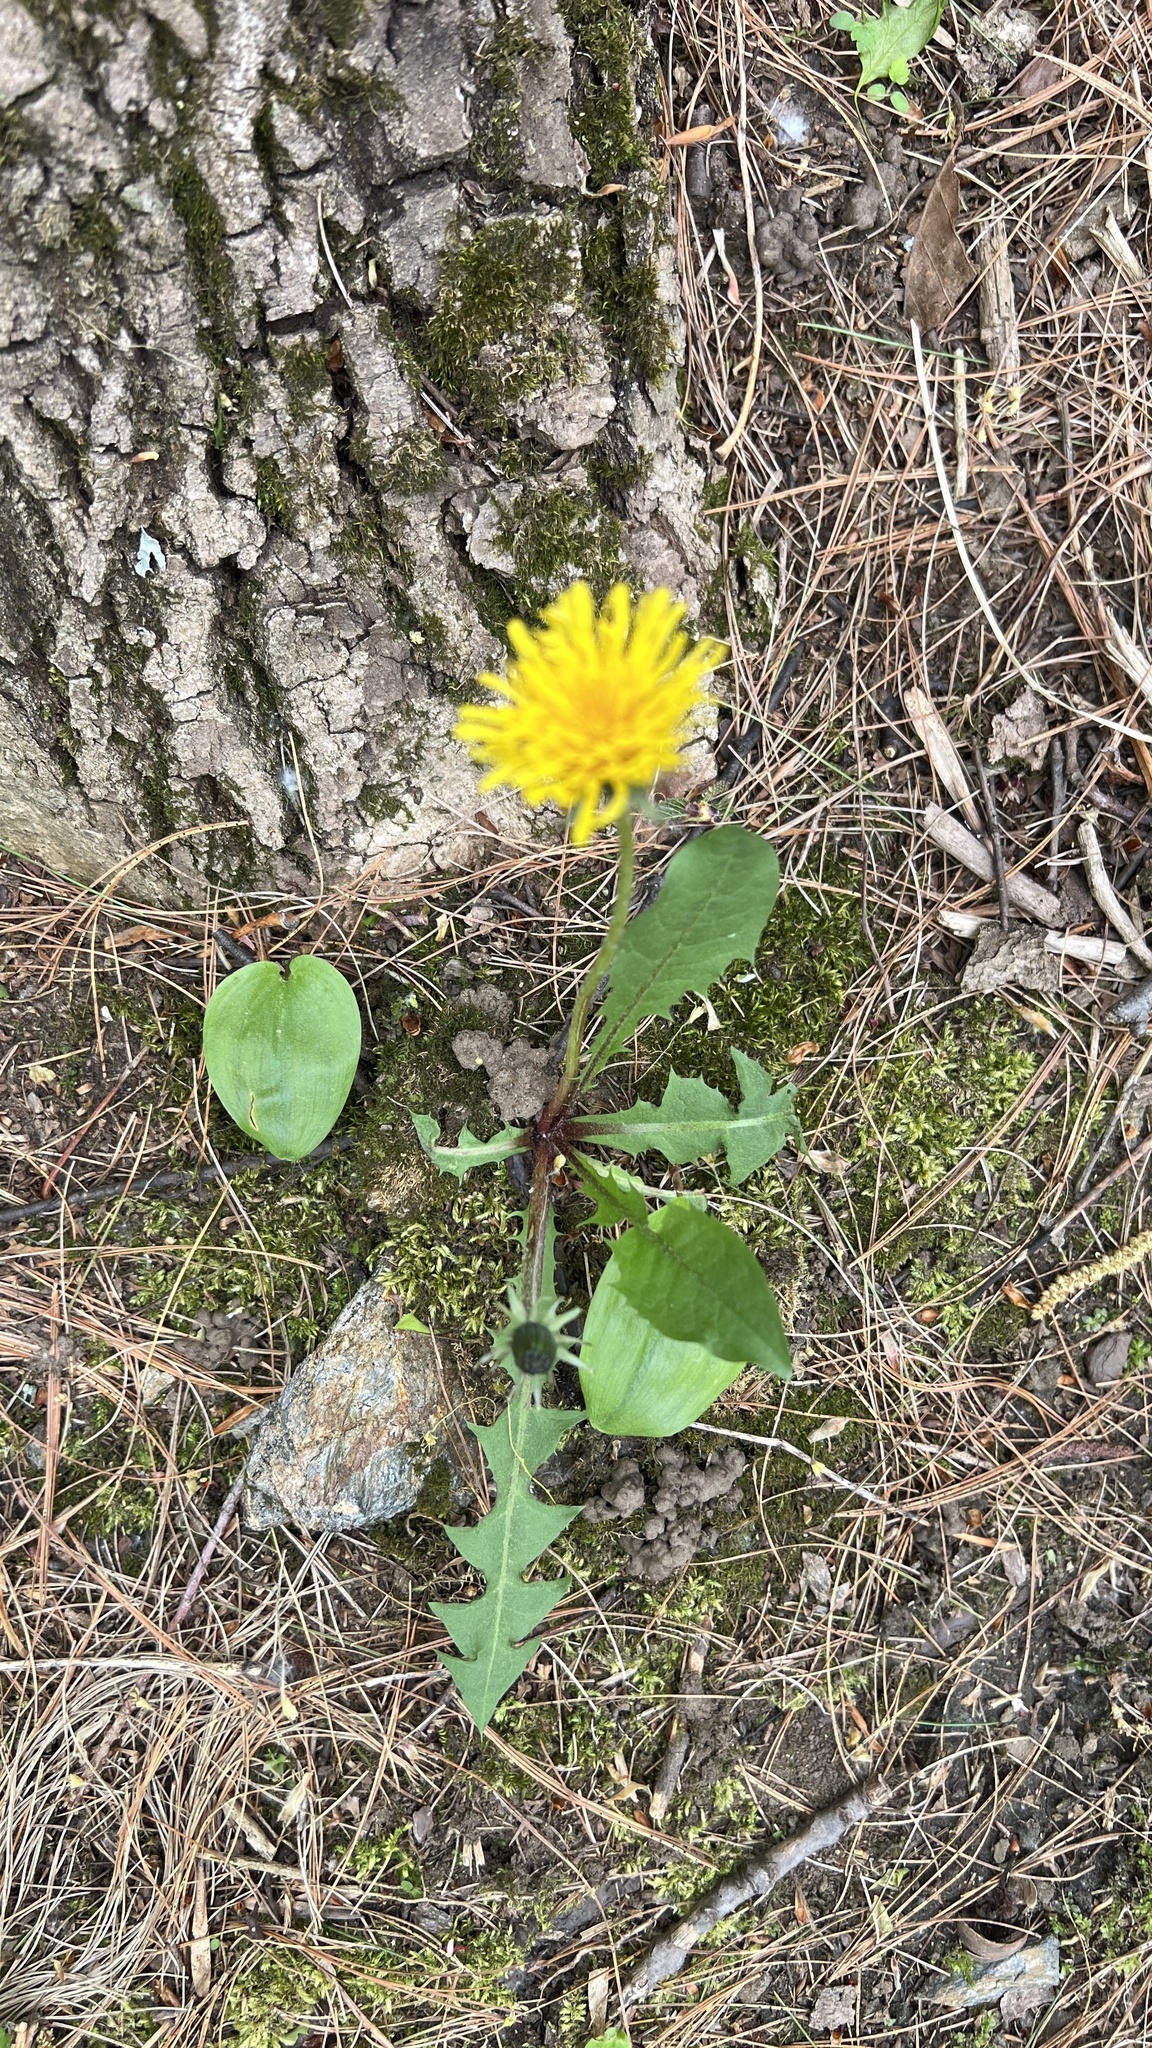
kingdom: Plantae
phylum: Tracheophyta
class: Magnoliopsida
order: Asterales
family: Asteraceae
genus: Taraxacum
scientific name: Taraxacum officinale
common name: Common dandelion
